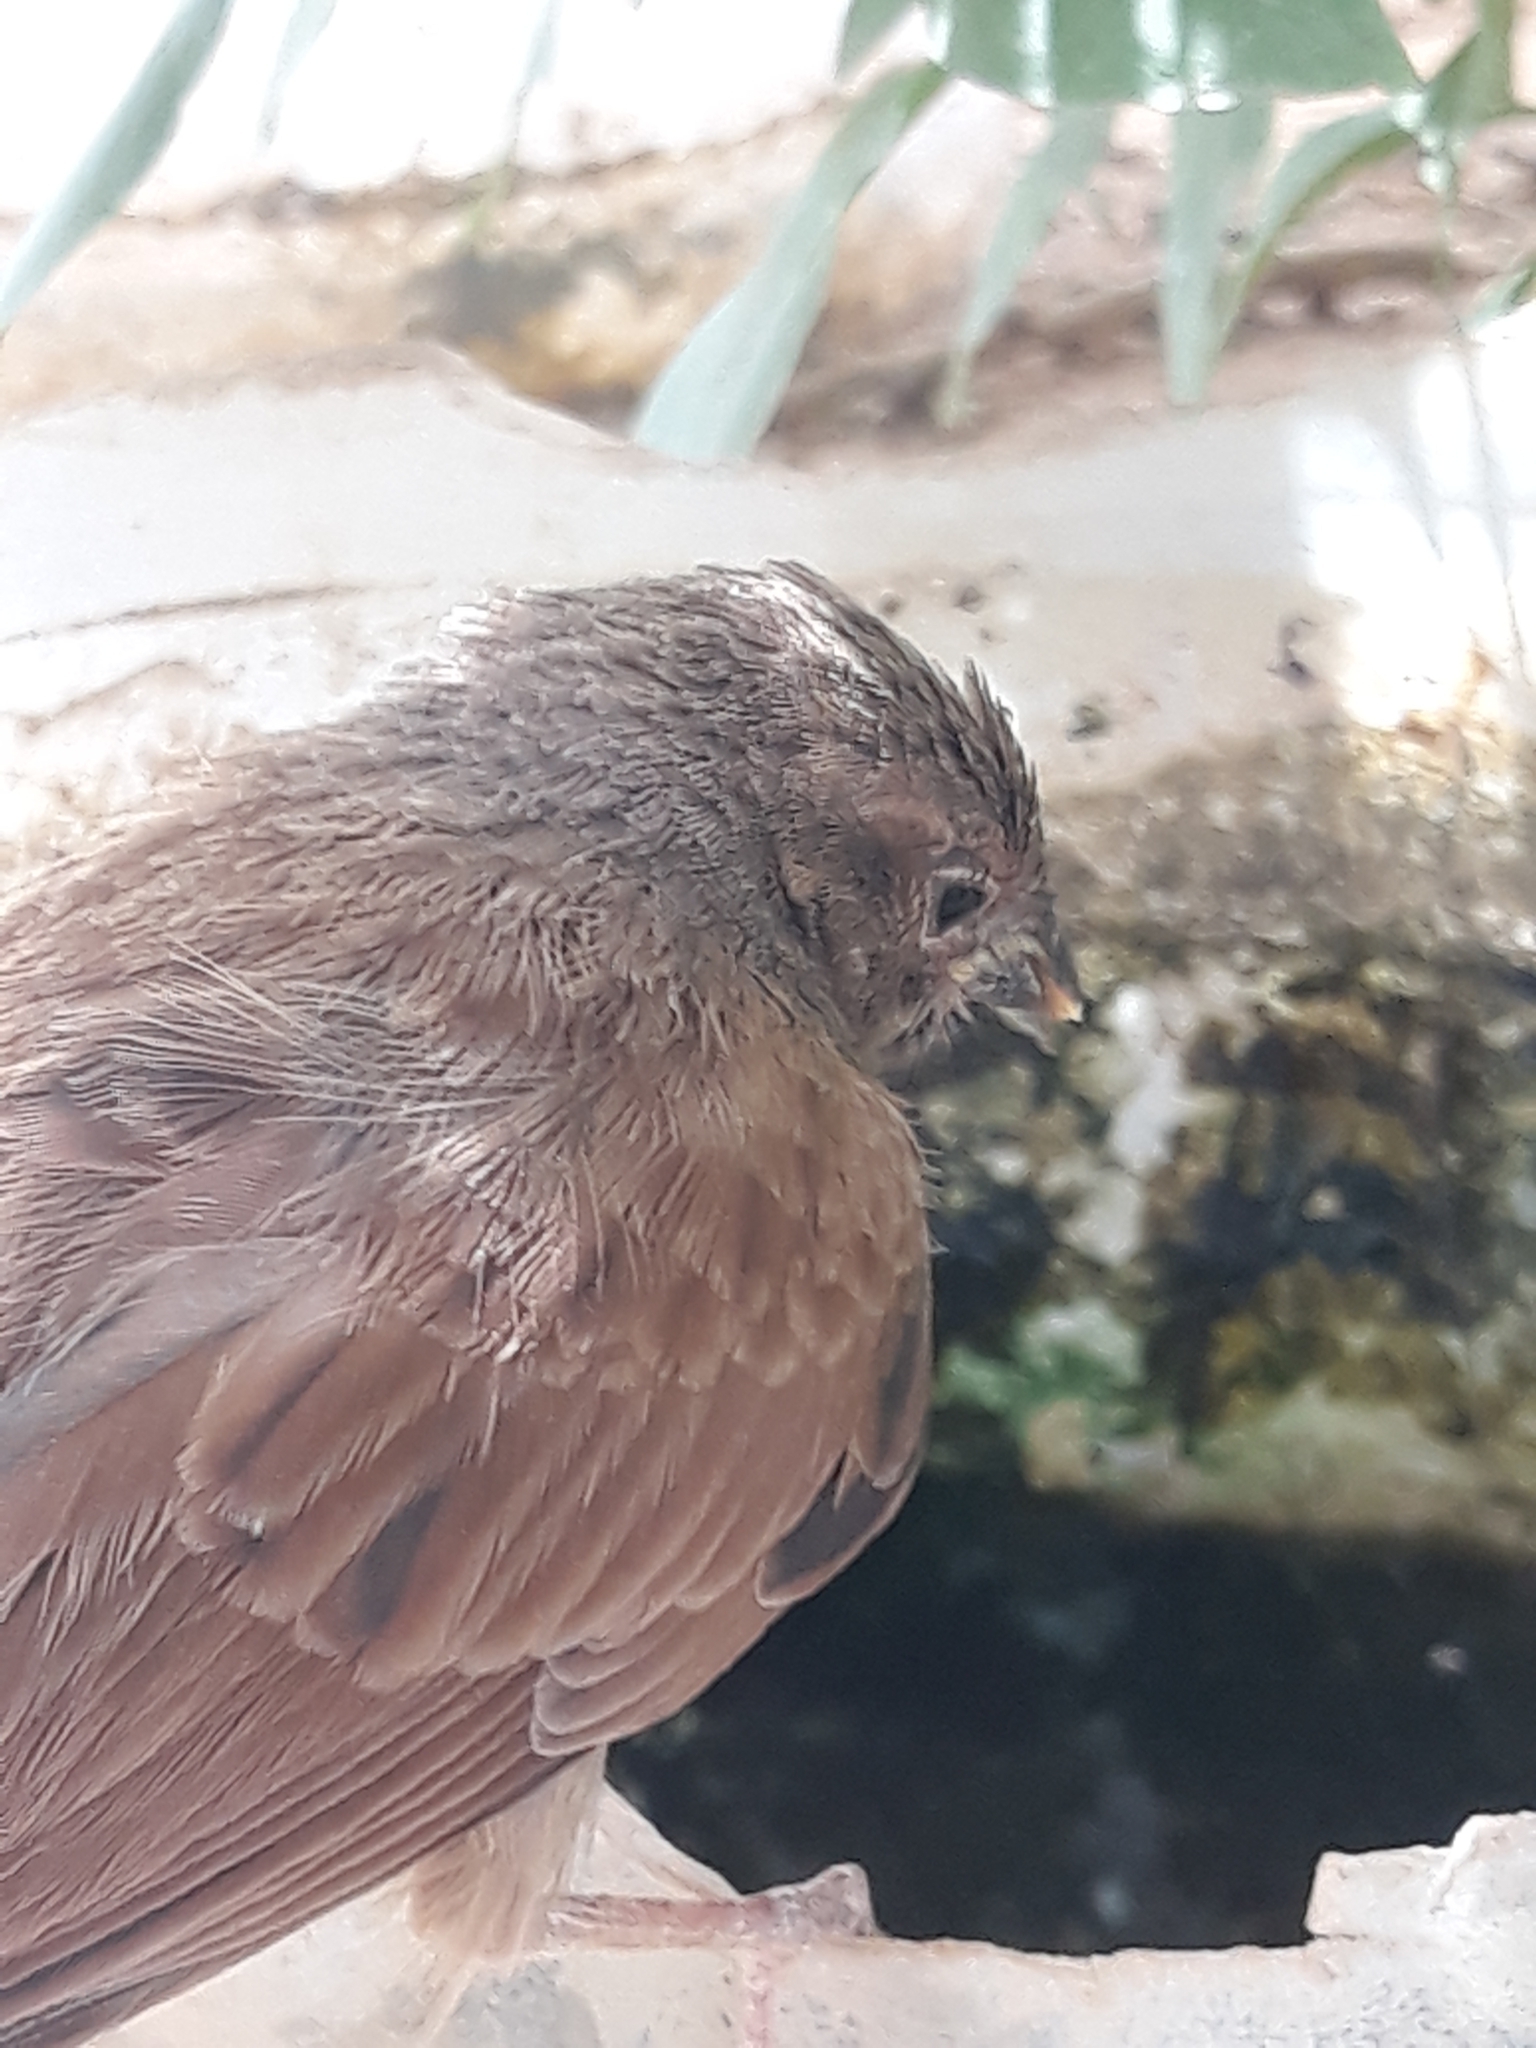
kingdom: Animalia
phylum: Chordata
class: Aves
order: Passeriformes
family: Emberizidae
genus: Emberiza
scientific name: Emberiza sahari
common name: House bunting
